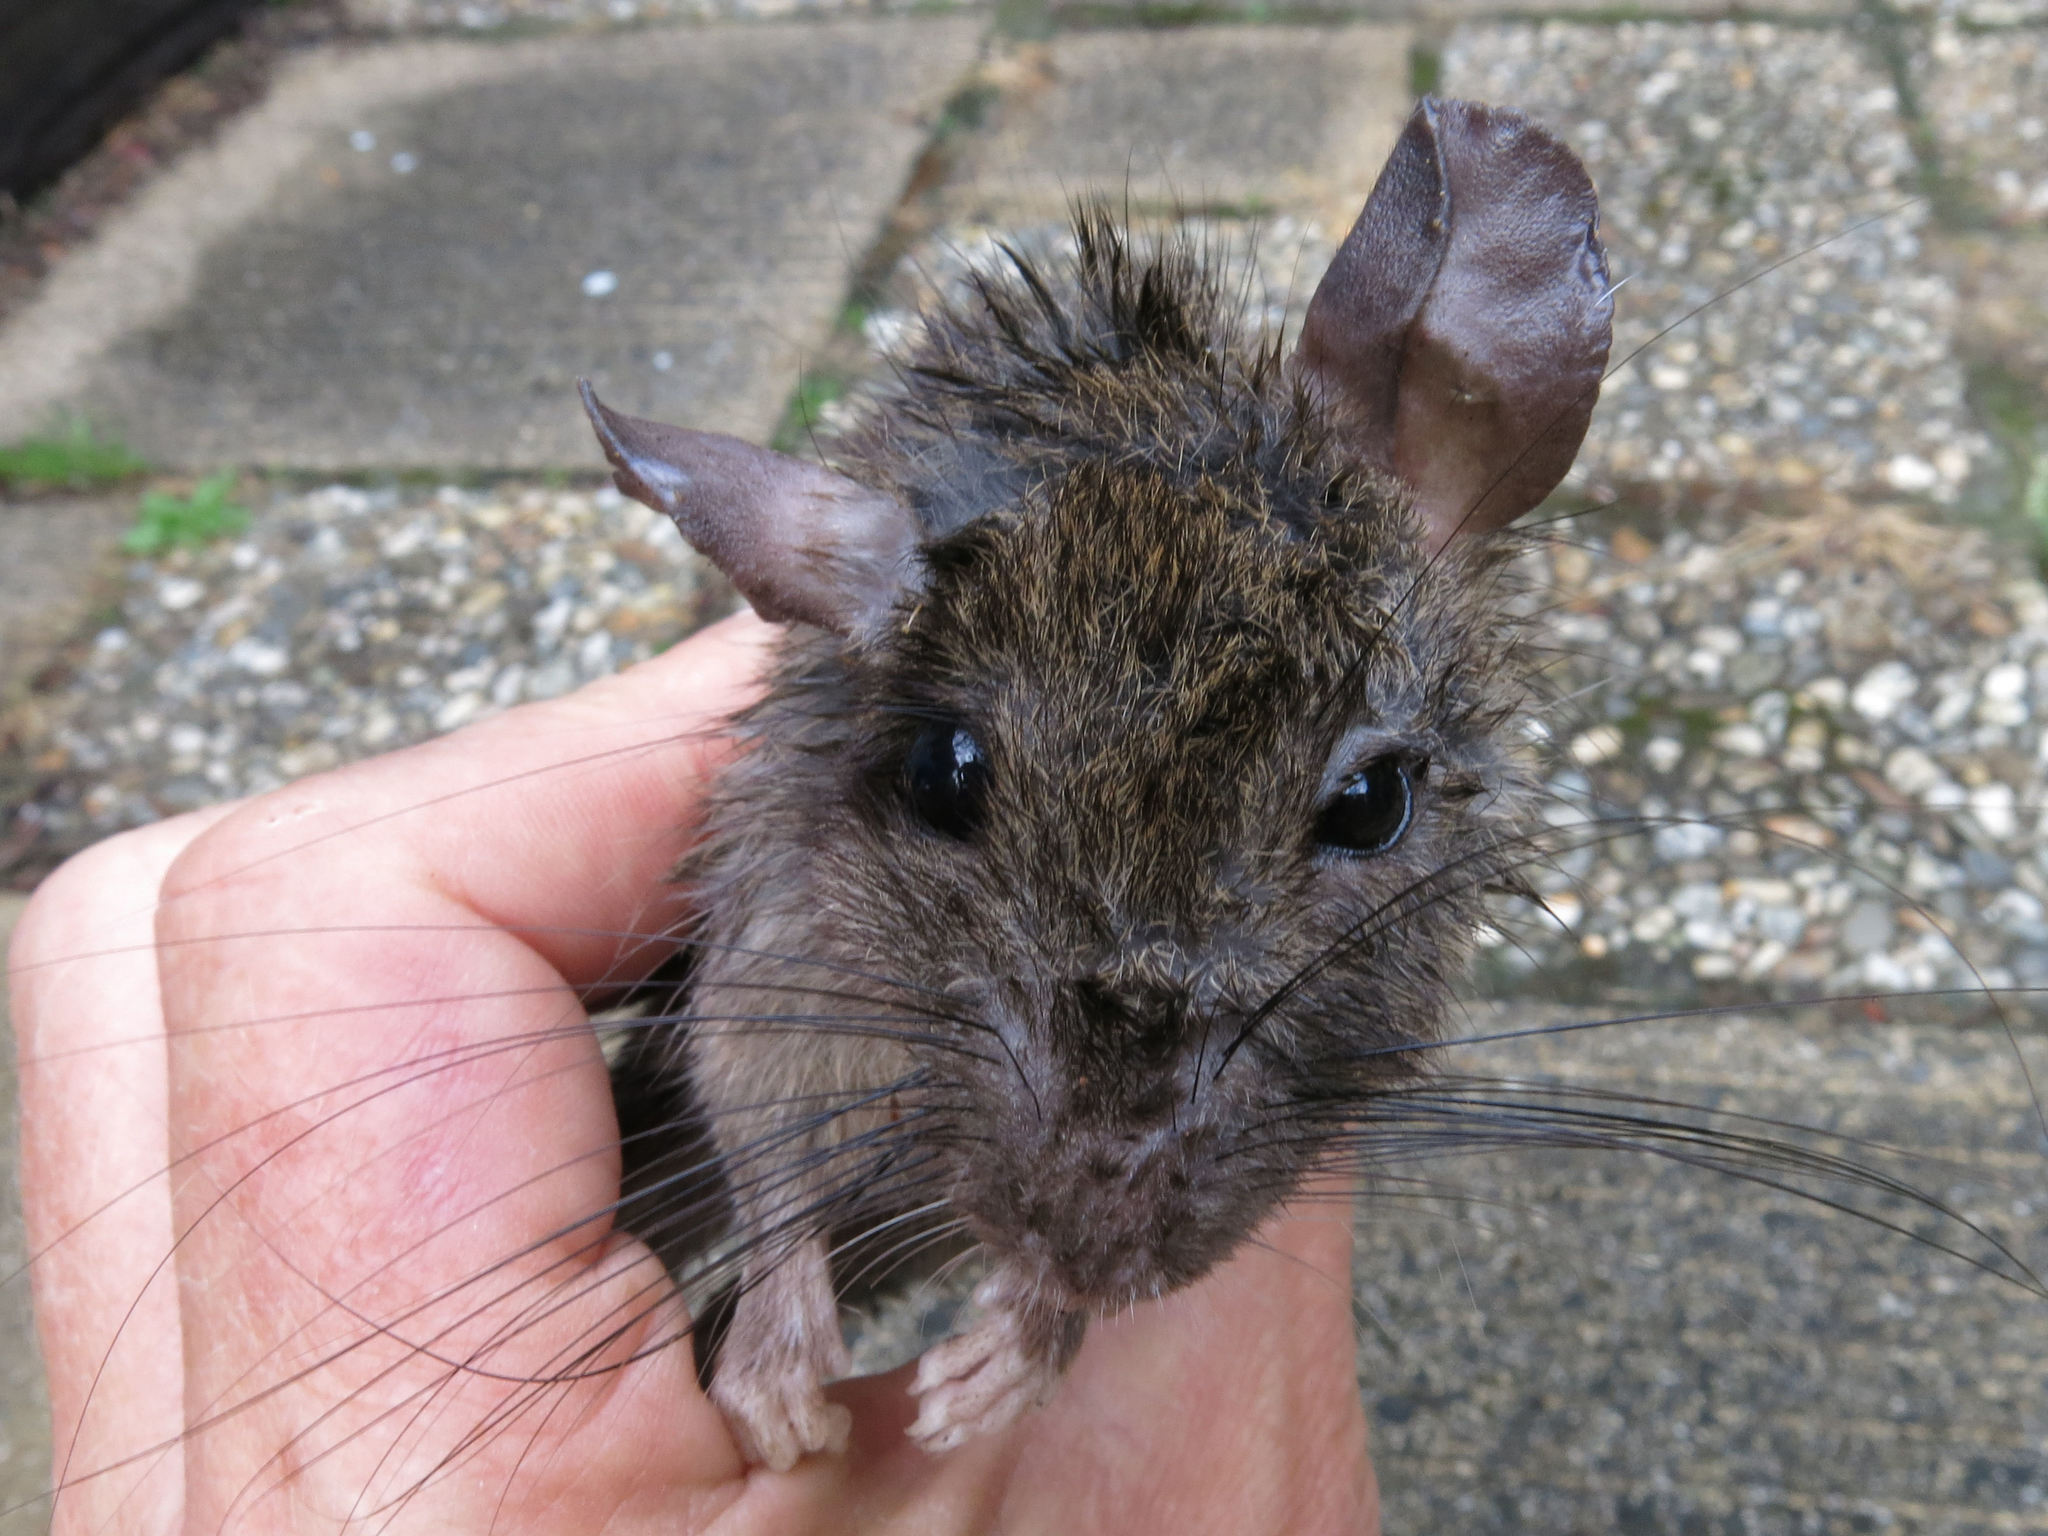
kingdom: Animalia
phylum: Chordata
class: Mammalia
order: Rodentia
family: Muridae
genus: Rattus
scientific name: Rattus rattus
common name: Black rat
